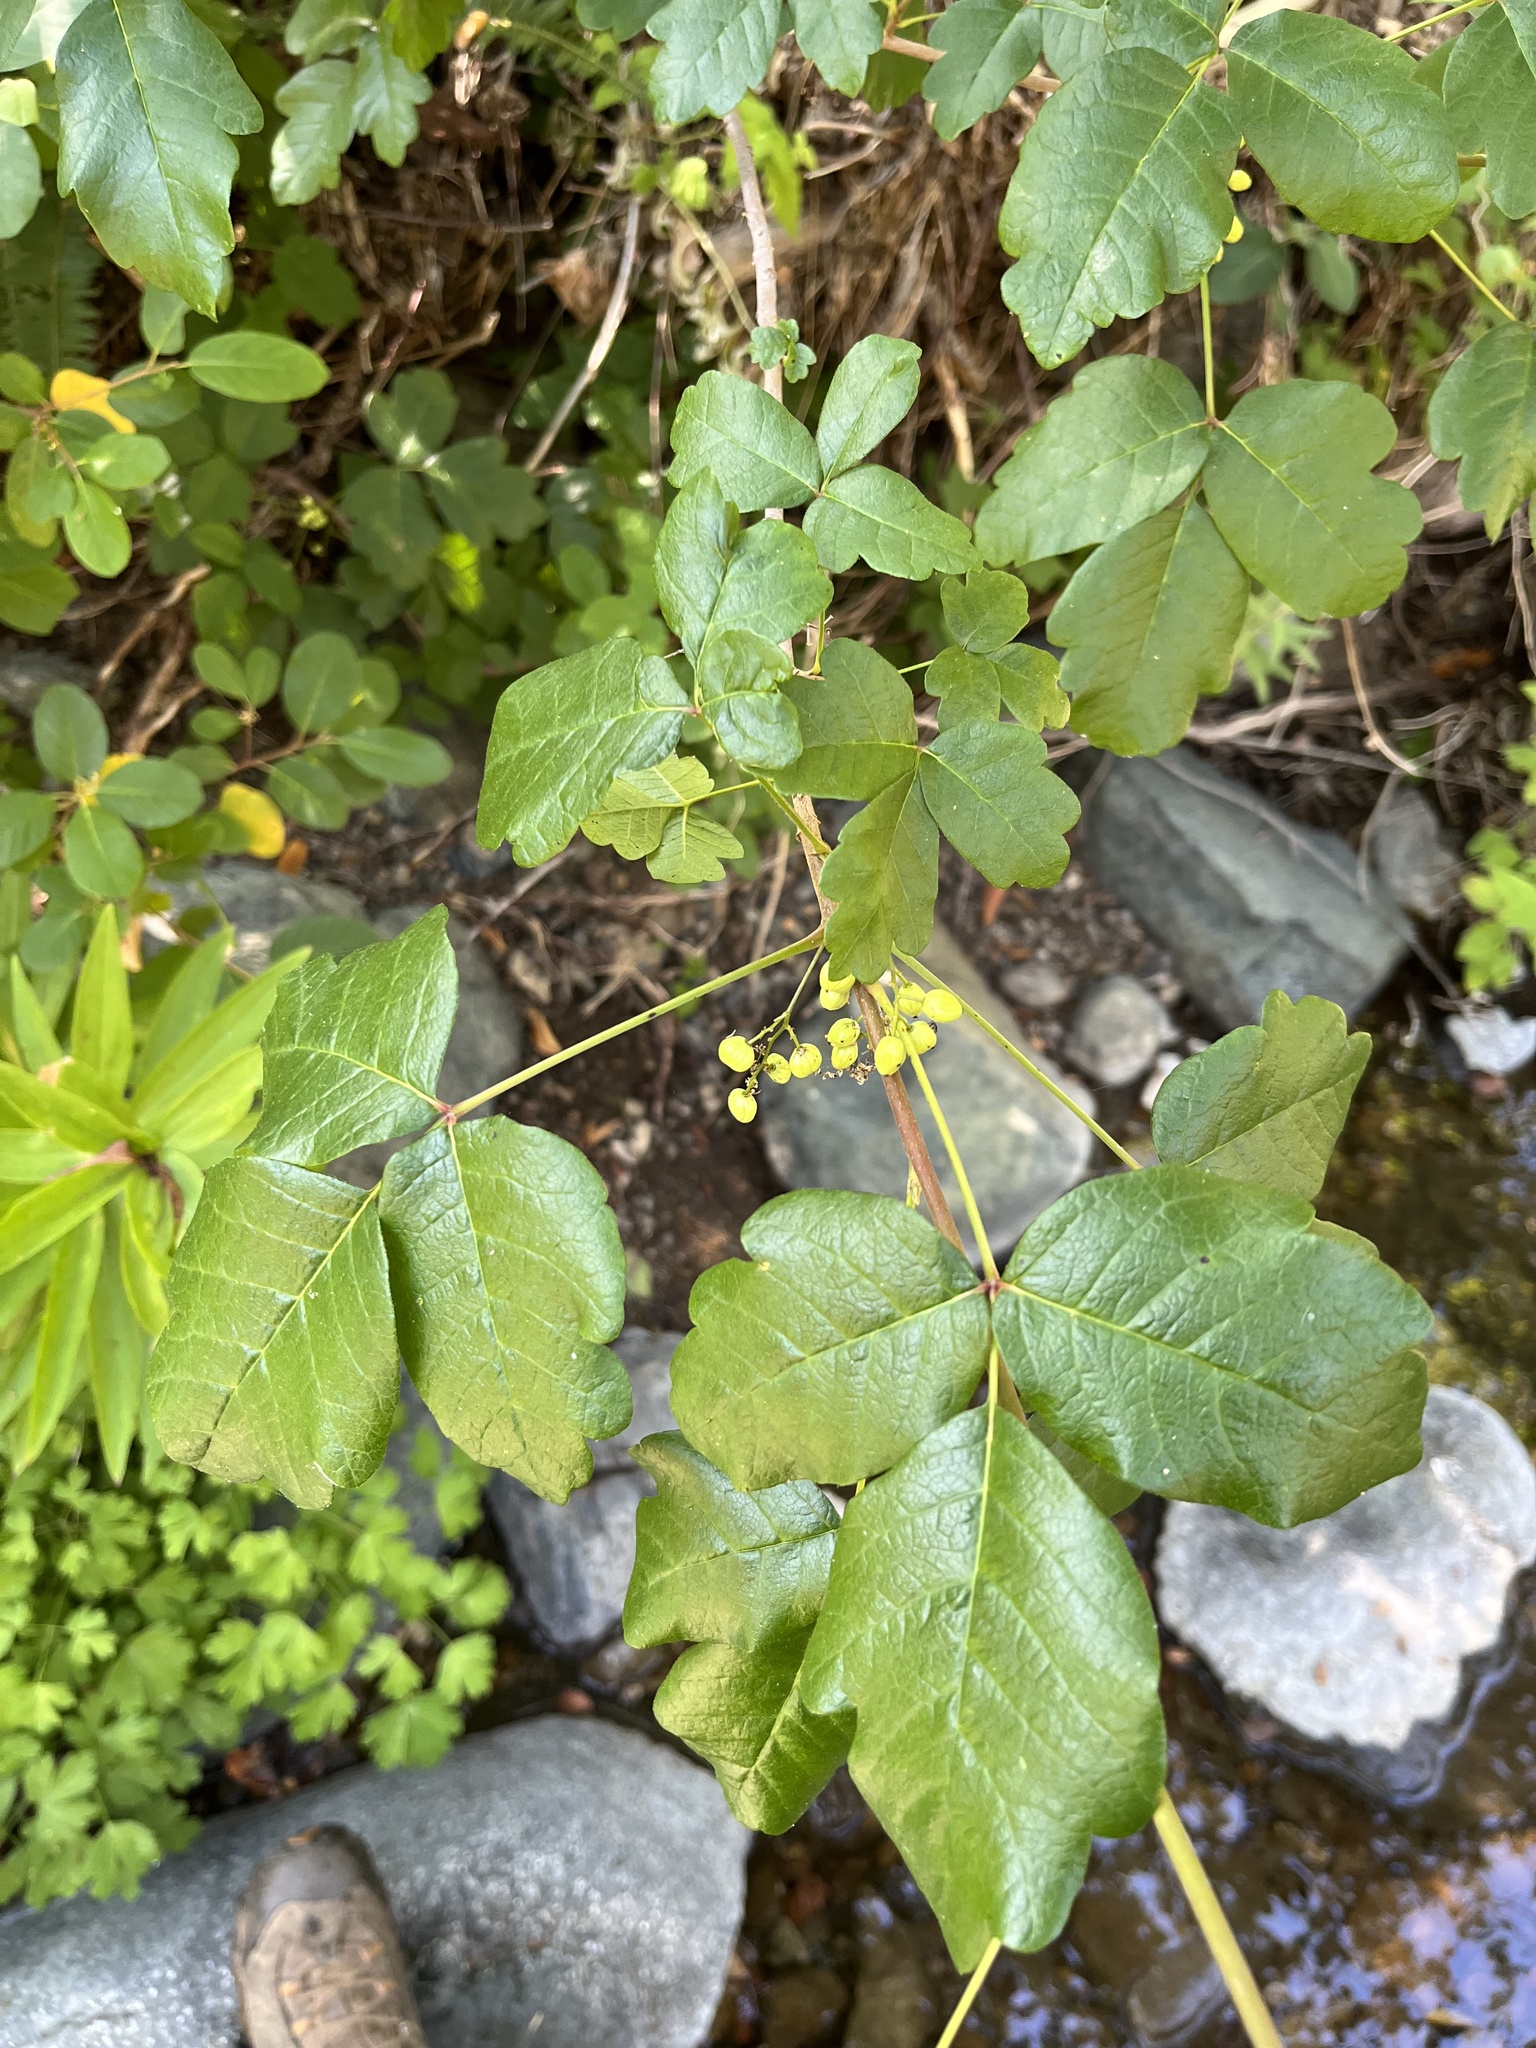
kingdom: Plantae
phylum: Tracheophyta
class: Magnoliopsida
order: Sapindales
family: Anacardiaceae
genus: Toxicodendron
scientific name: Toxicodendron diversilobum
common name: Pacific poison-oak
